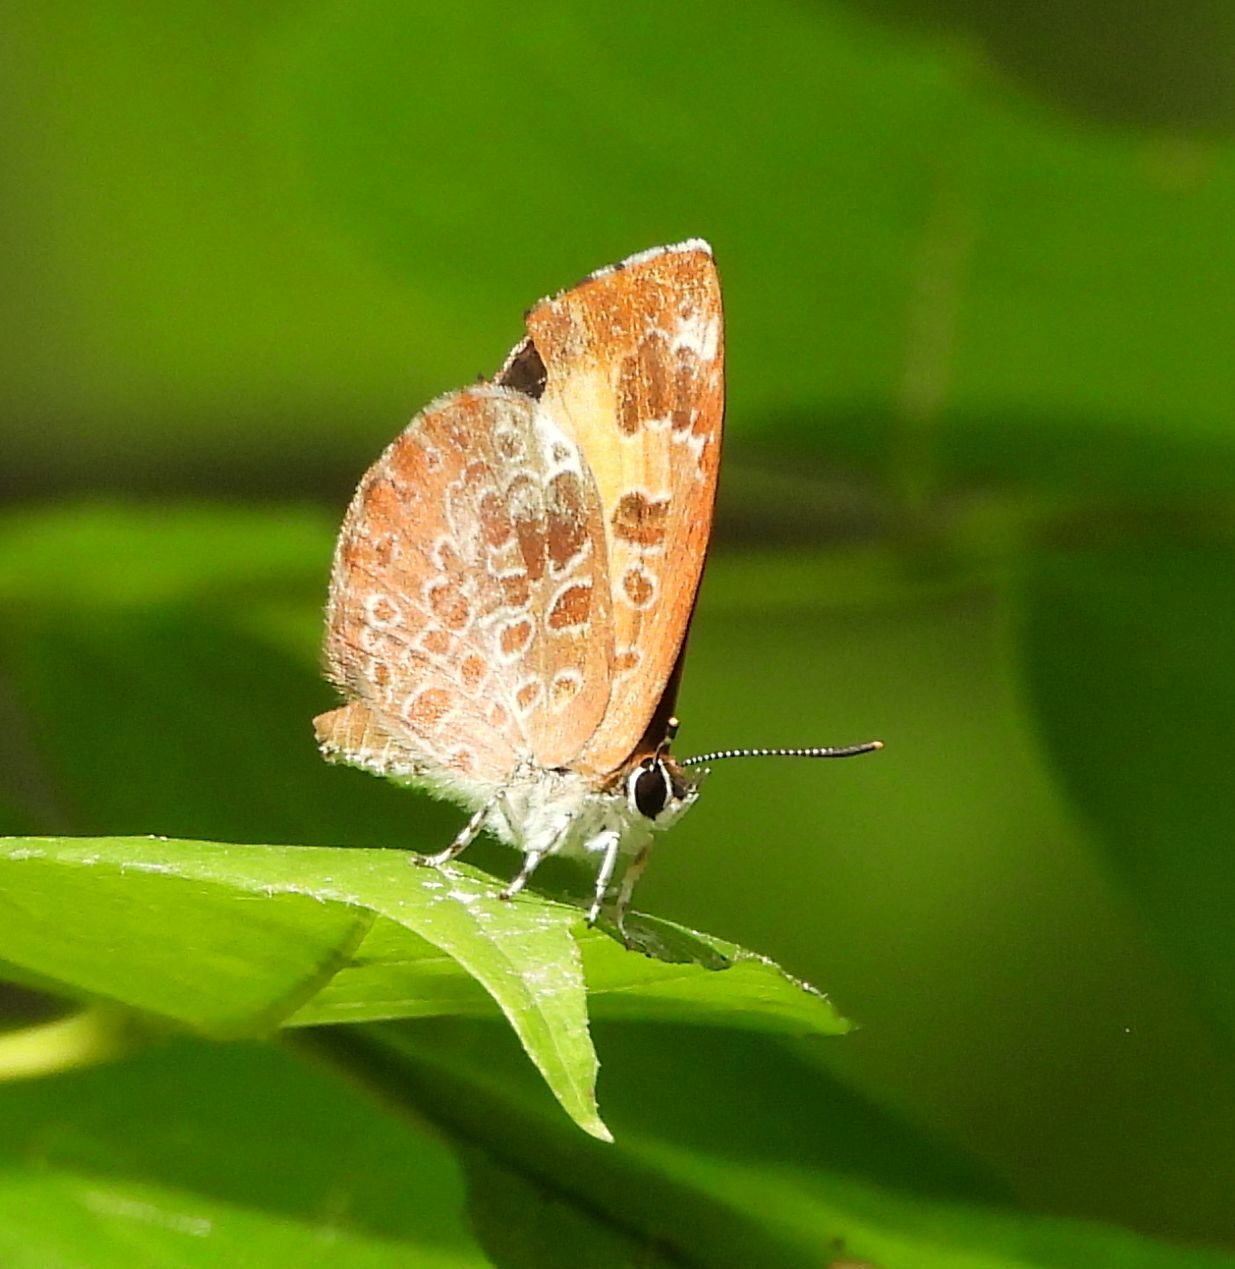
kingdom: Animalia
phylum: Arthropoda
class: Insecta
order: Lepidoptera
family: Lycaenidae
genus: Feniseca
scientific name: Feniseca tarquinius
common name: Harvester
